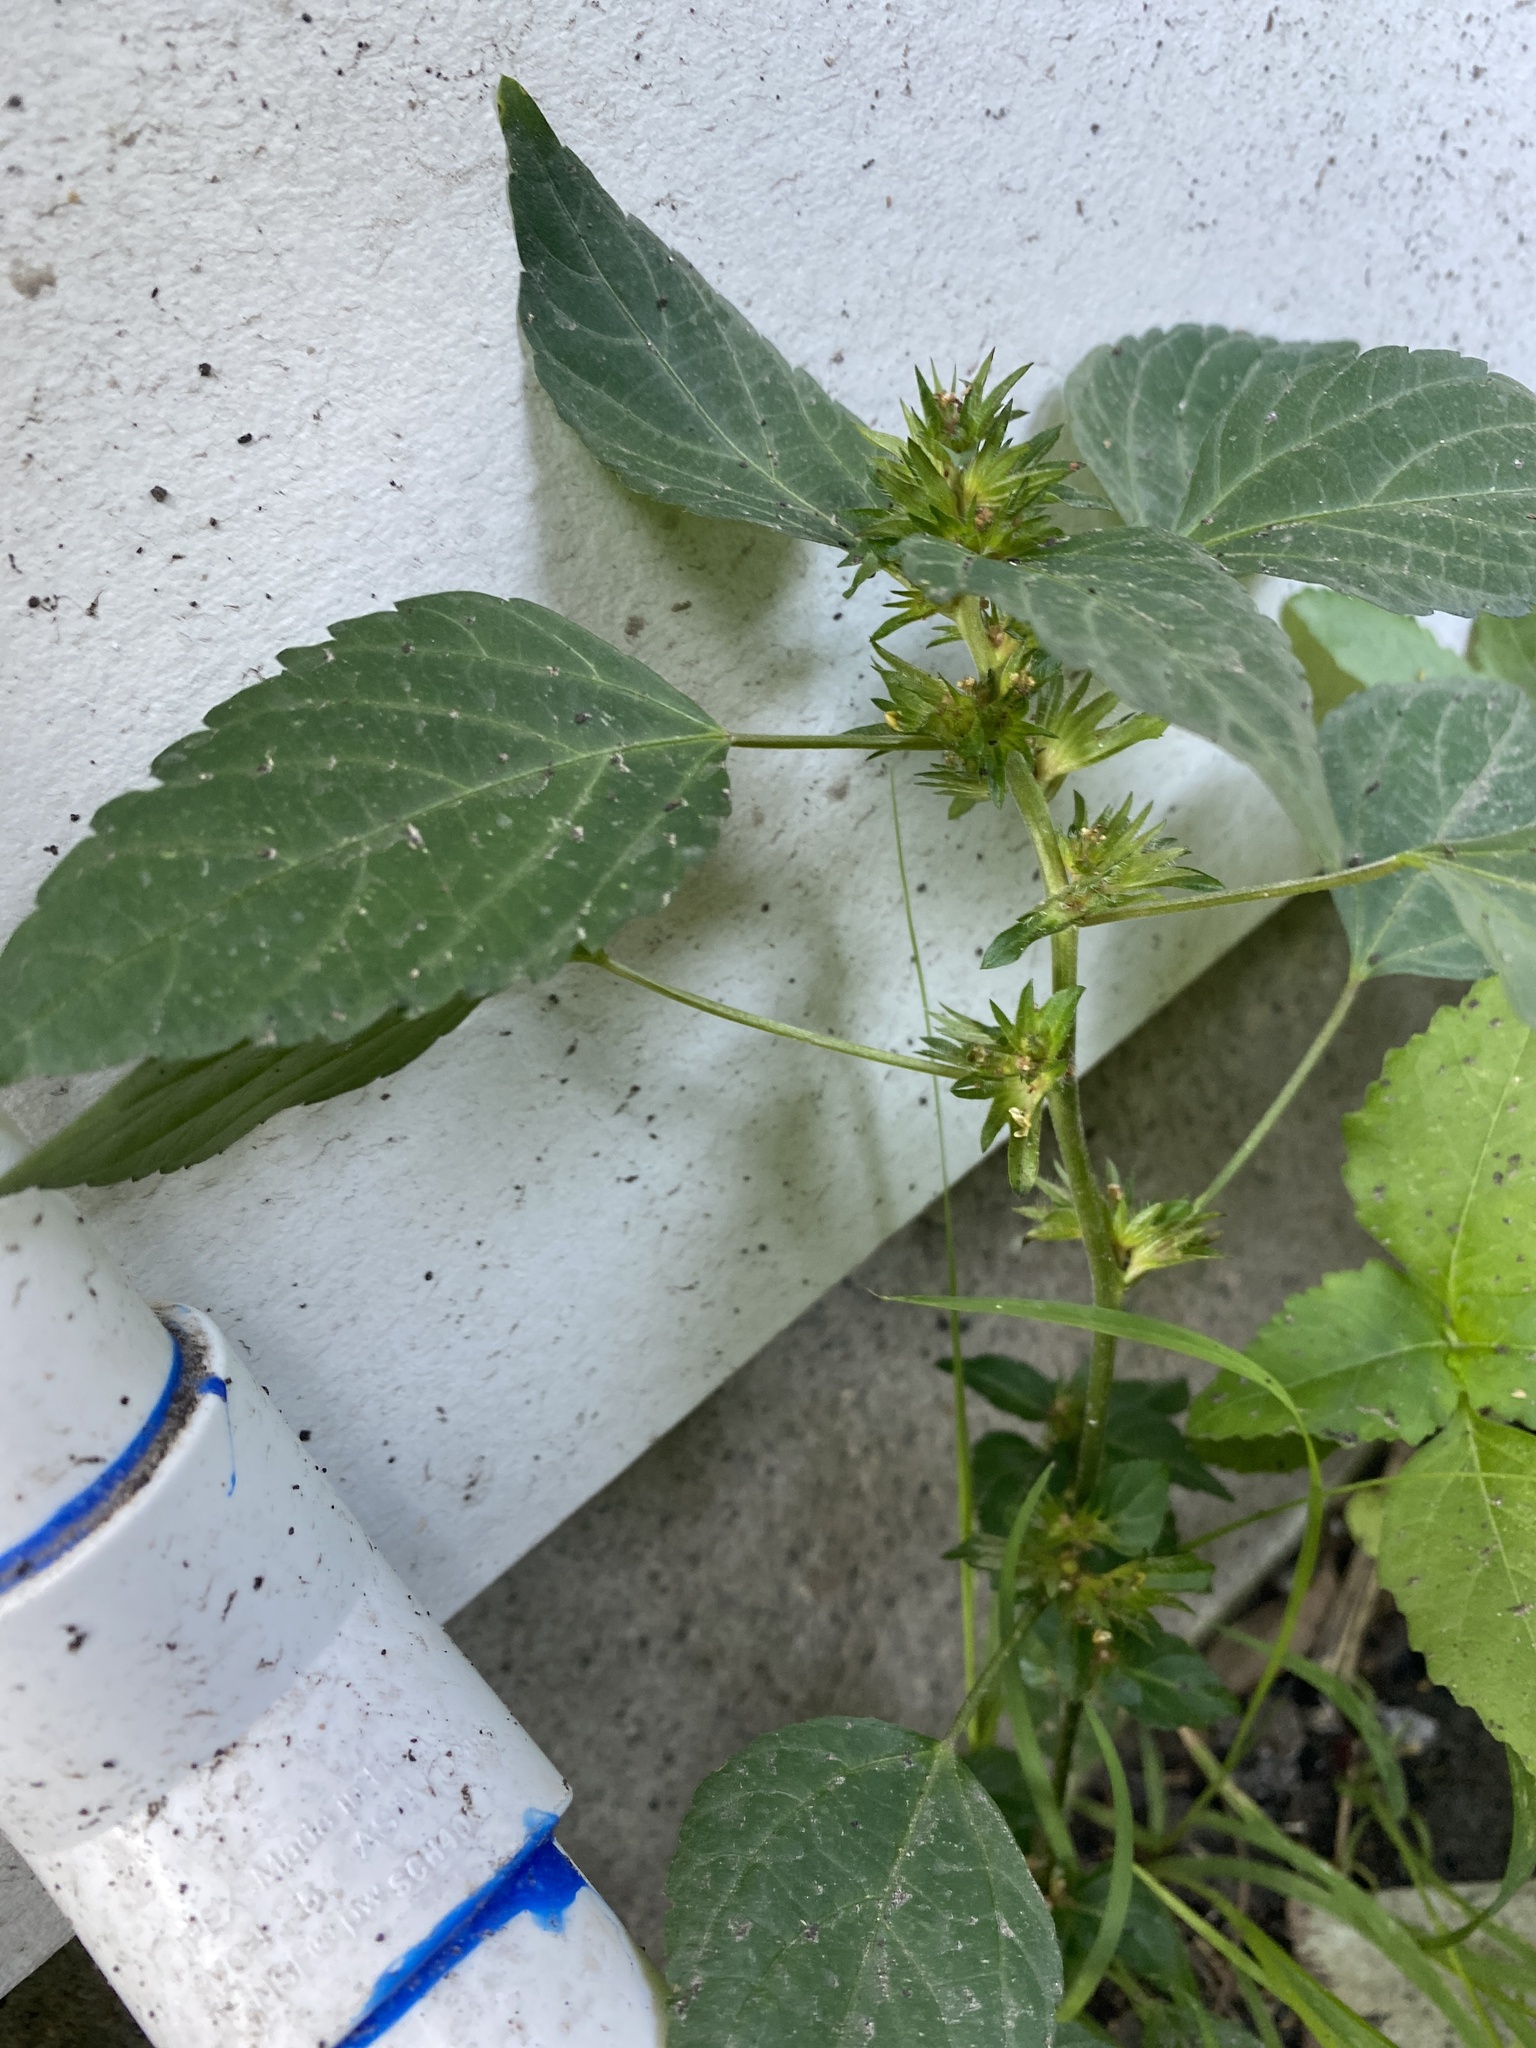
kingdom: Plantae
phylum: Tracheophyta
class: Magnoliopsida
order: Malpighiales
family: Euphorbiaceae
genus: Acalypha
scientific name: Acalypha rhomboidea
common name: Rhombic copperleaf
